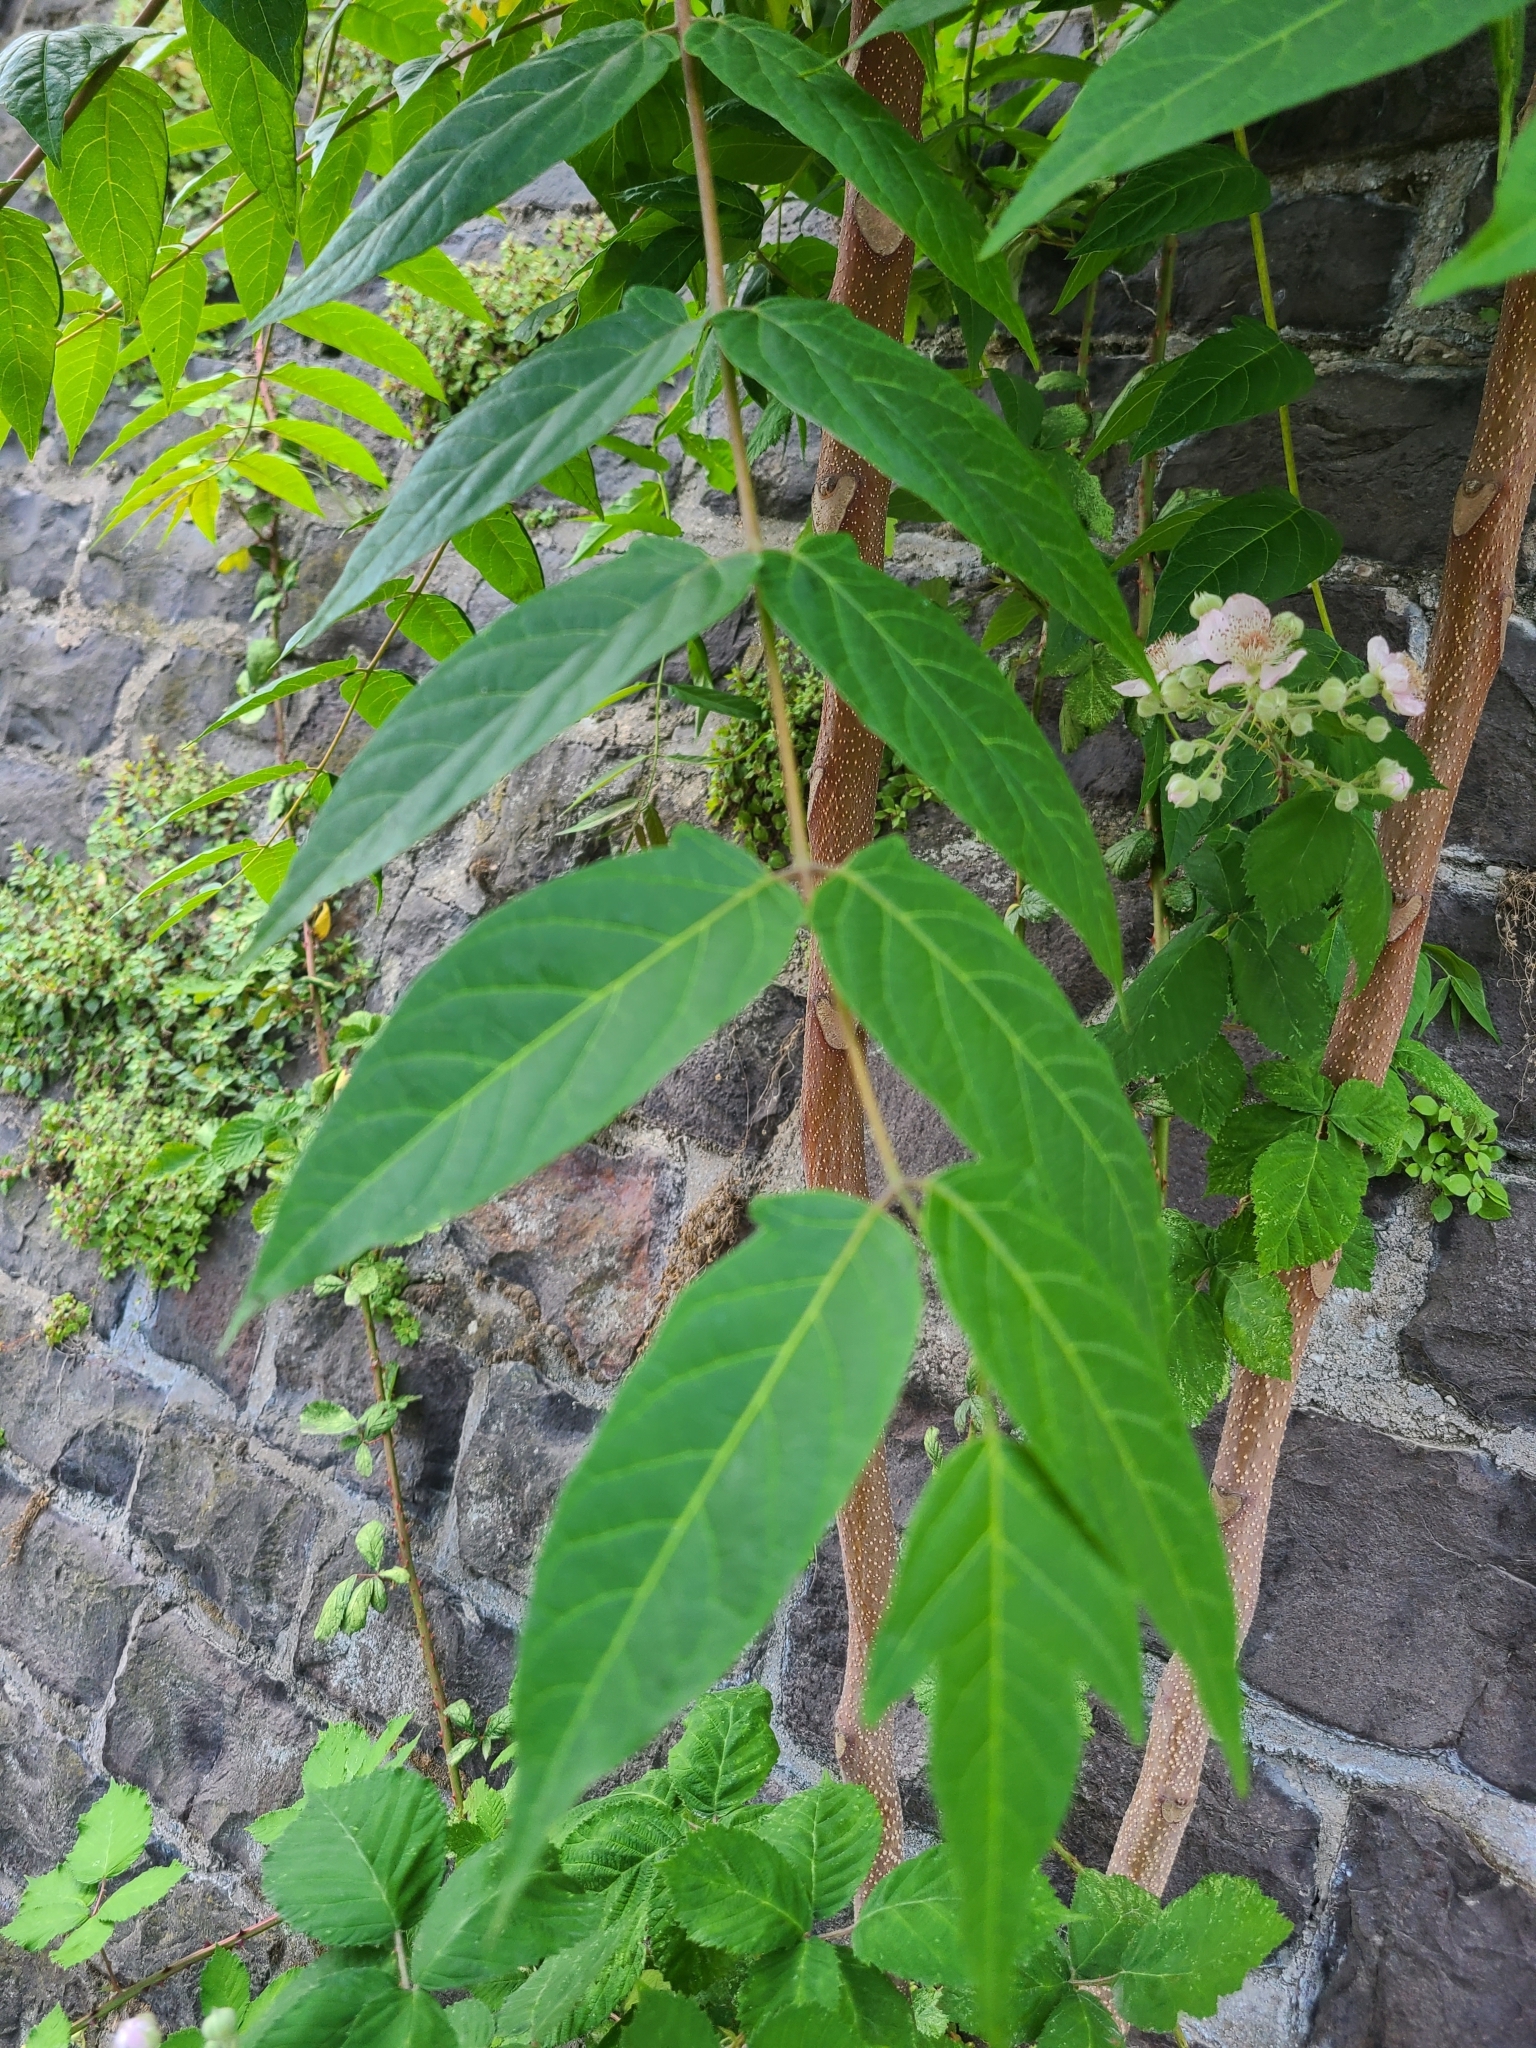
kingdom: Plantae
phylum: Tracheophyta
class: Magnoliopsida
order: Sapindales
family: Simaroubaceae
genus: Ailanthus
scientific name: Ailanthus altissima
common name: Tree-of-heaven
